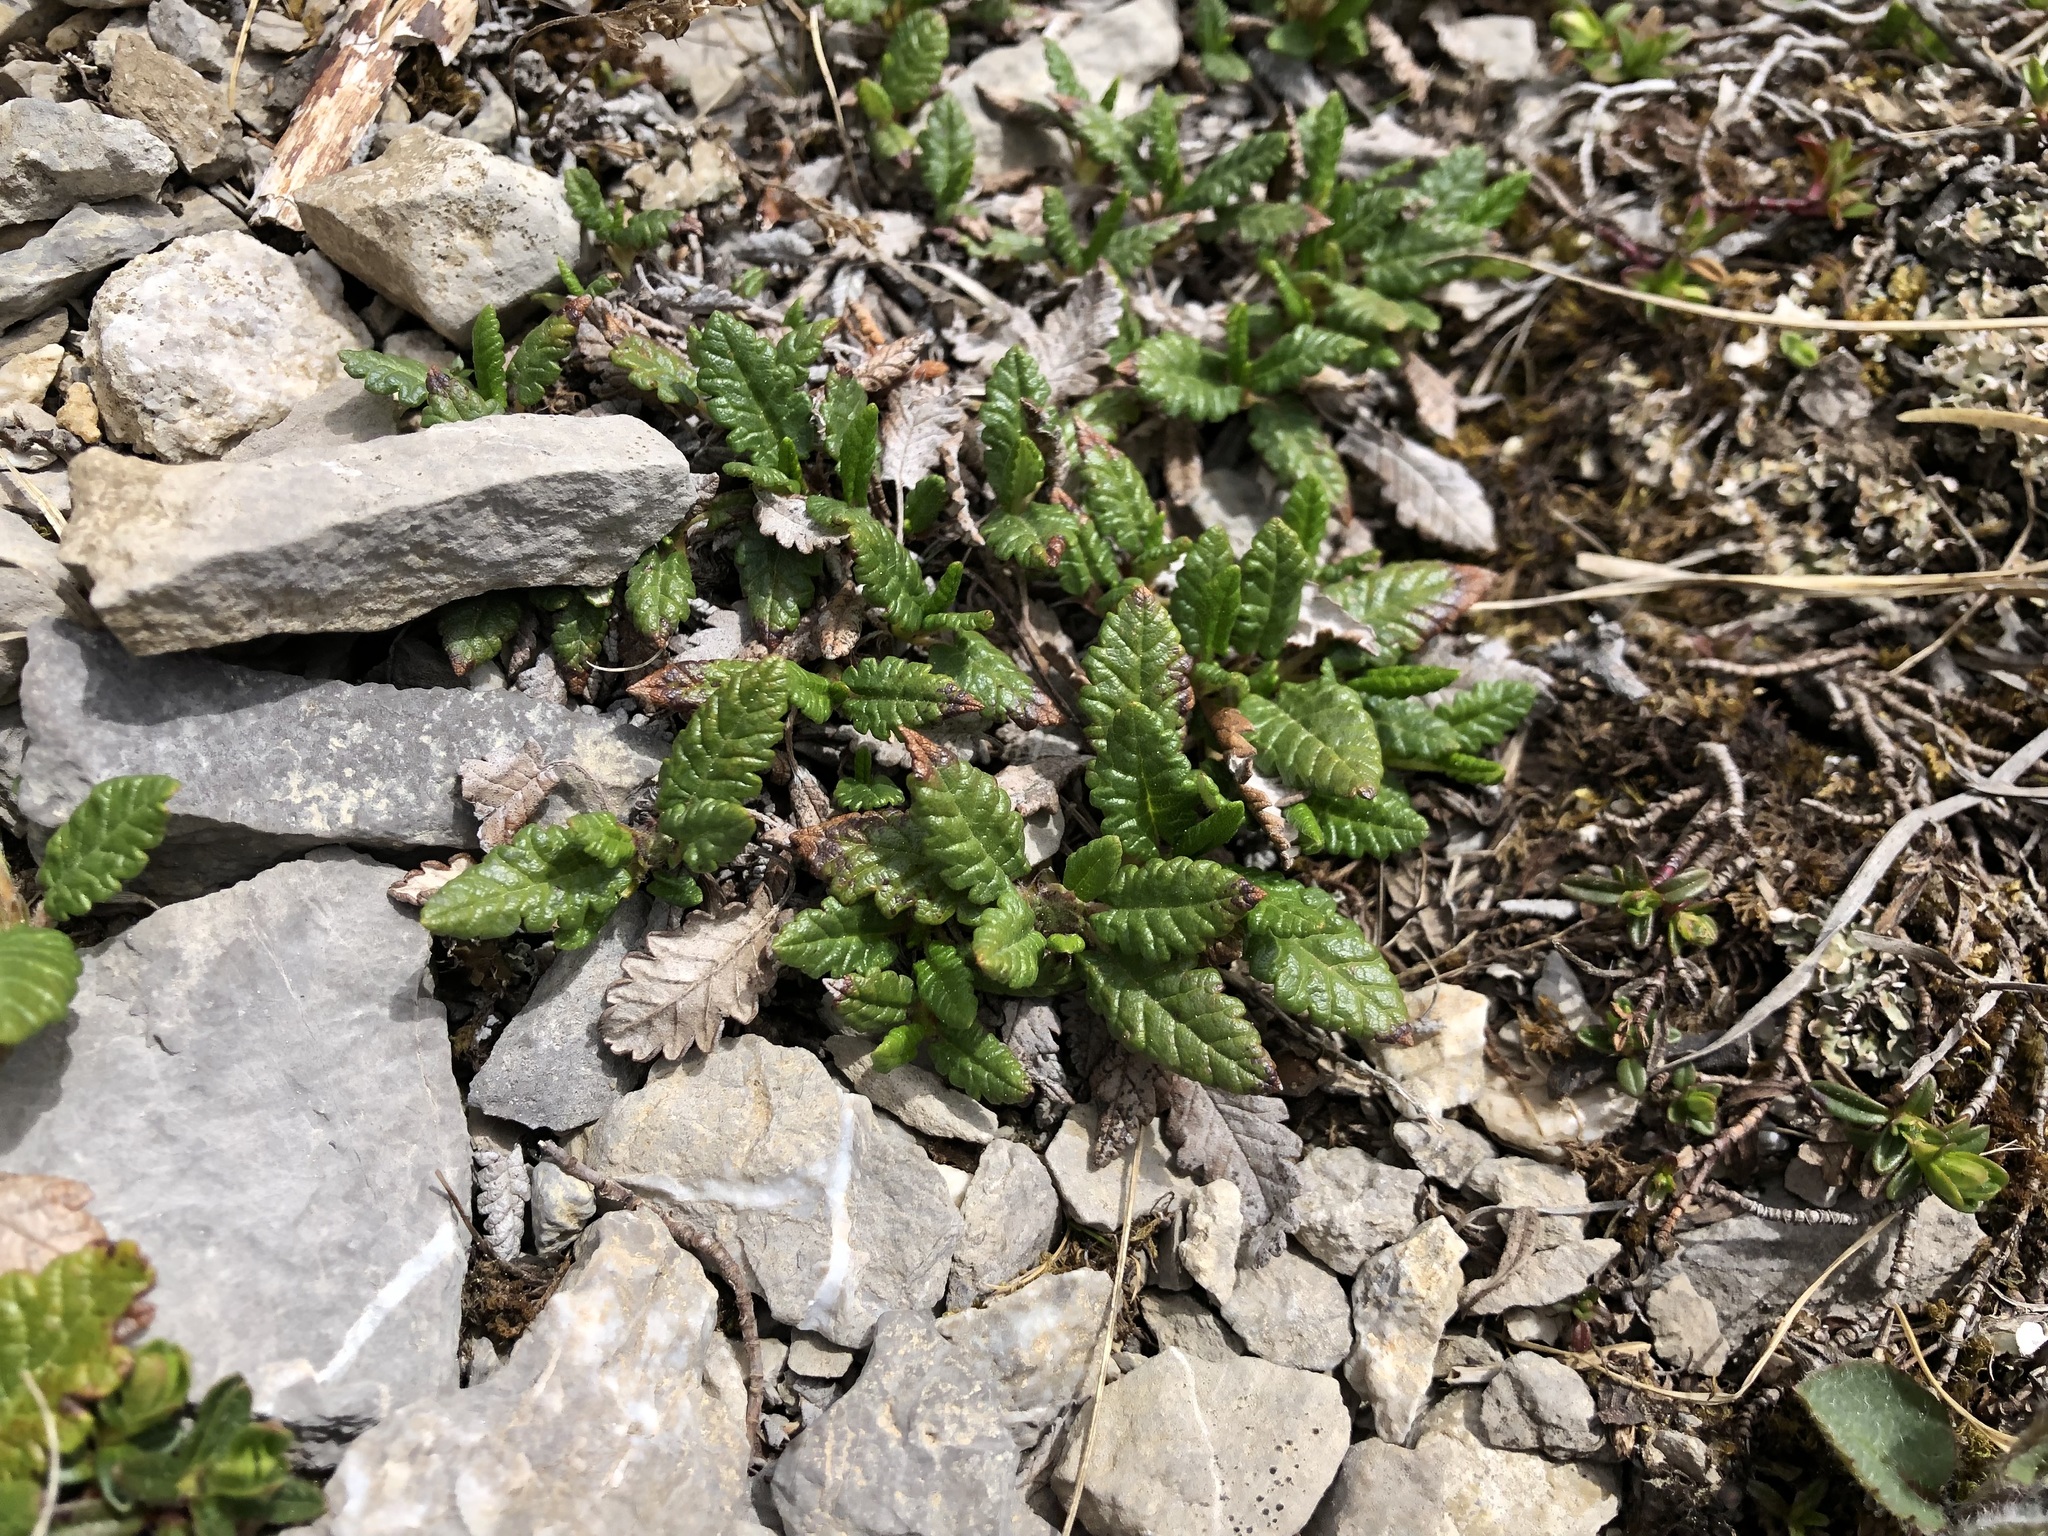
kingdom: Plantae
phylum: Tracheophyta
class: Magnoliopsida
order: Rosales
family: Rosaceae
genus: Dryas
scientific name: Dryas octopetala
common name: Eight-petal mountain-avens
